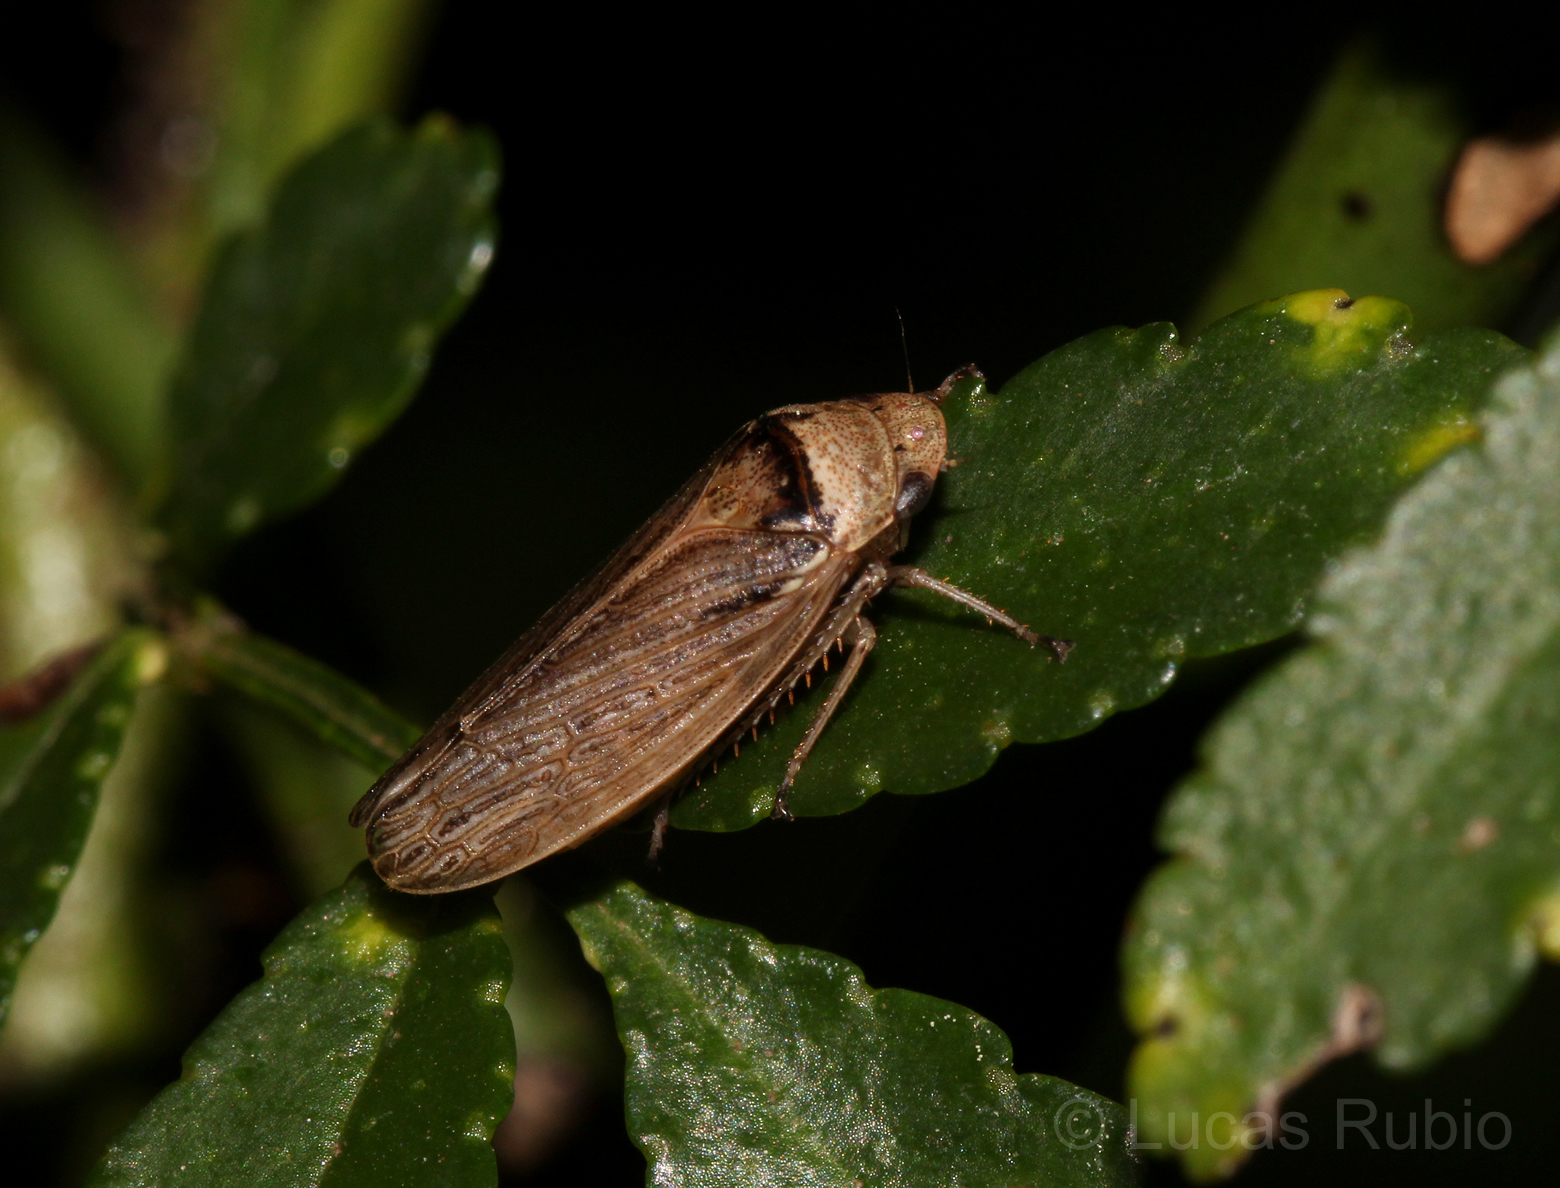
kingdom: Animalia
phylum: Arthropoda
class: Insecta
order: Hemiptera
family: Cicadellidae
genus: Sordana
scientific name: Sordana sordida
